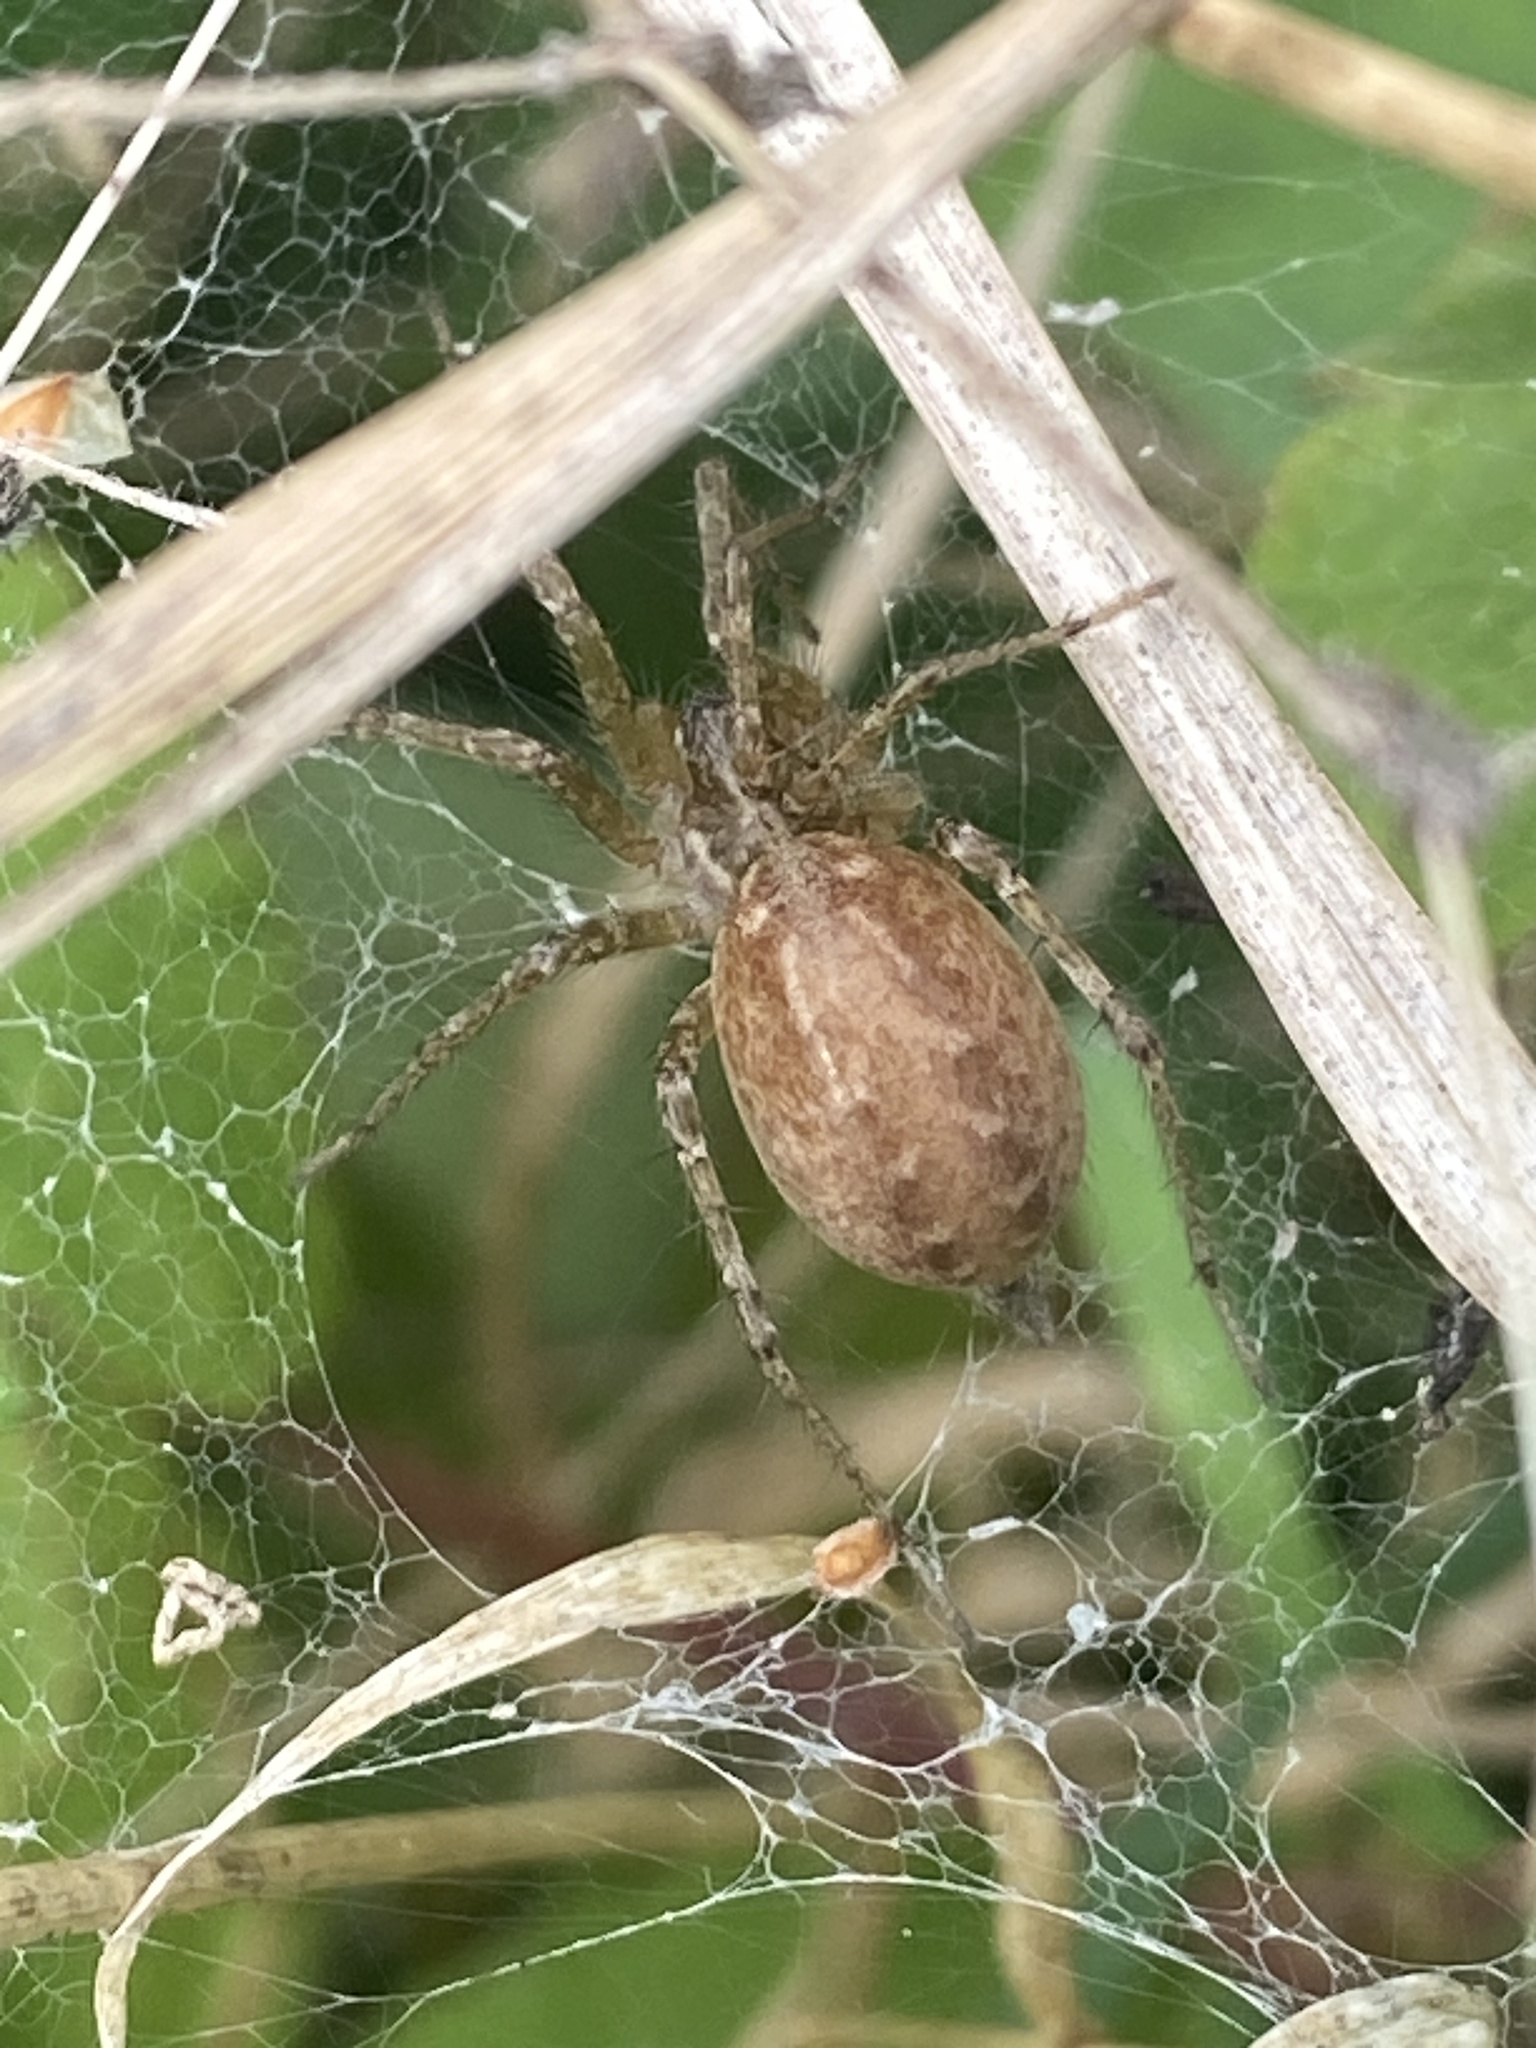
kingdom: Animalia
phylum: Arthropoda
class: Arachnida
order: Araneae
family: Agelenidae
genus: Allagelena
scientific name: Allagelena gracilens
